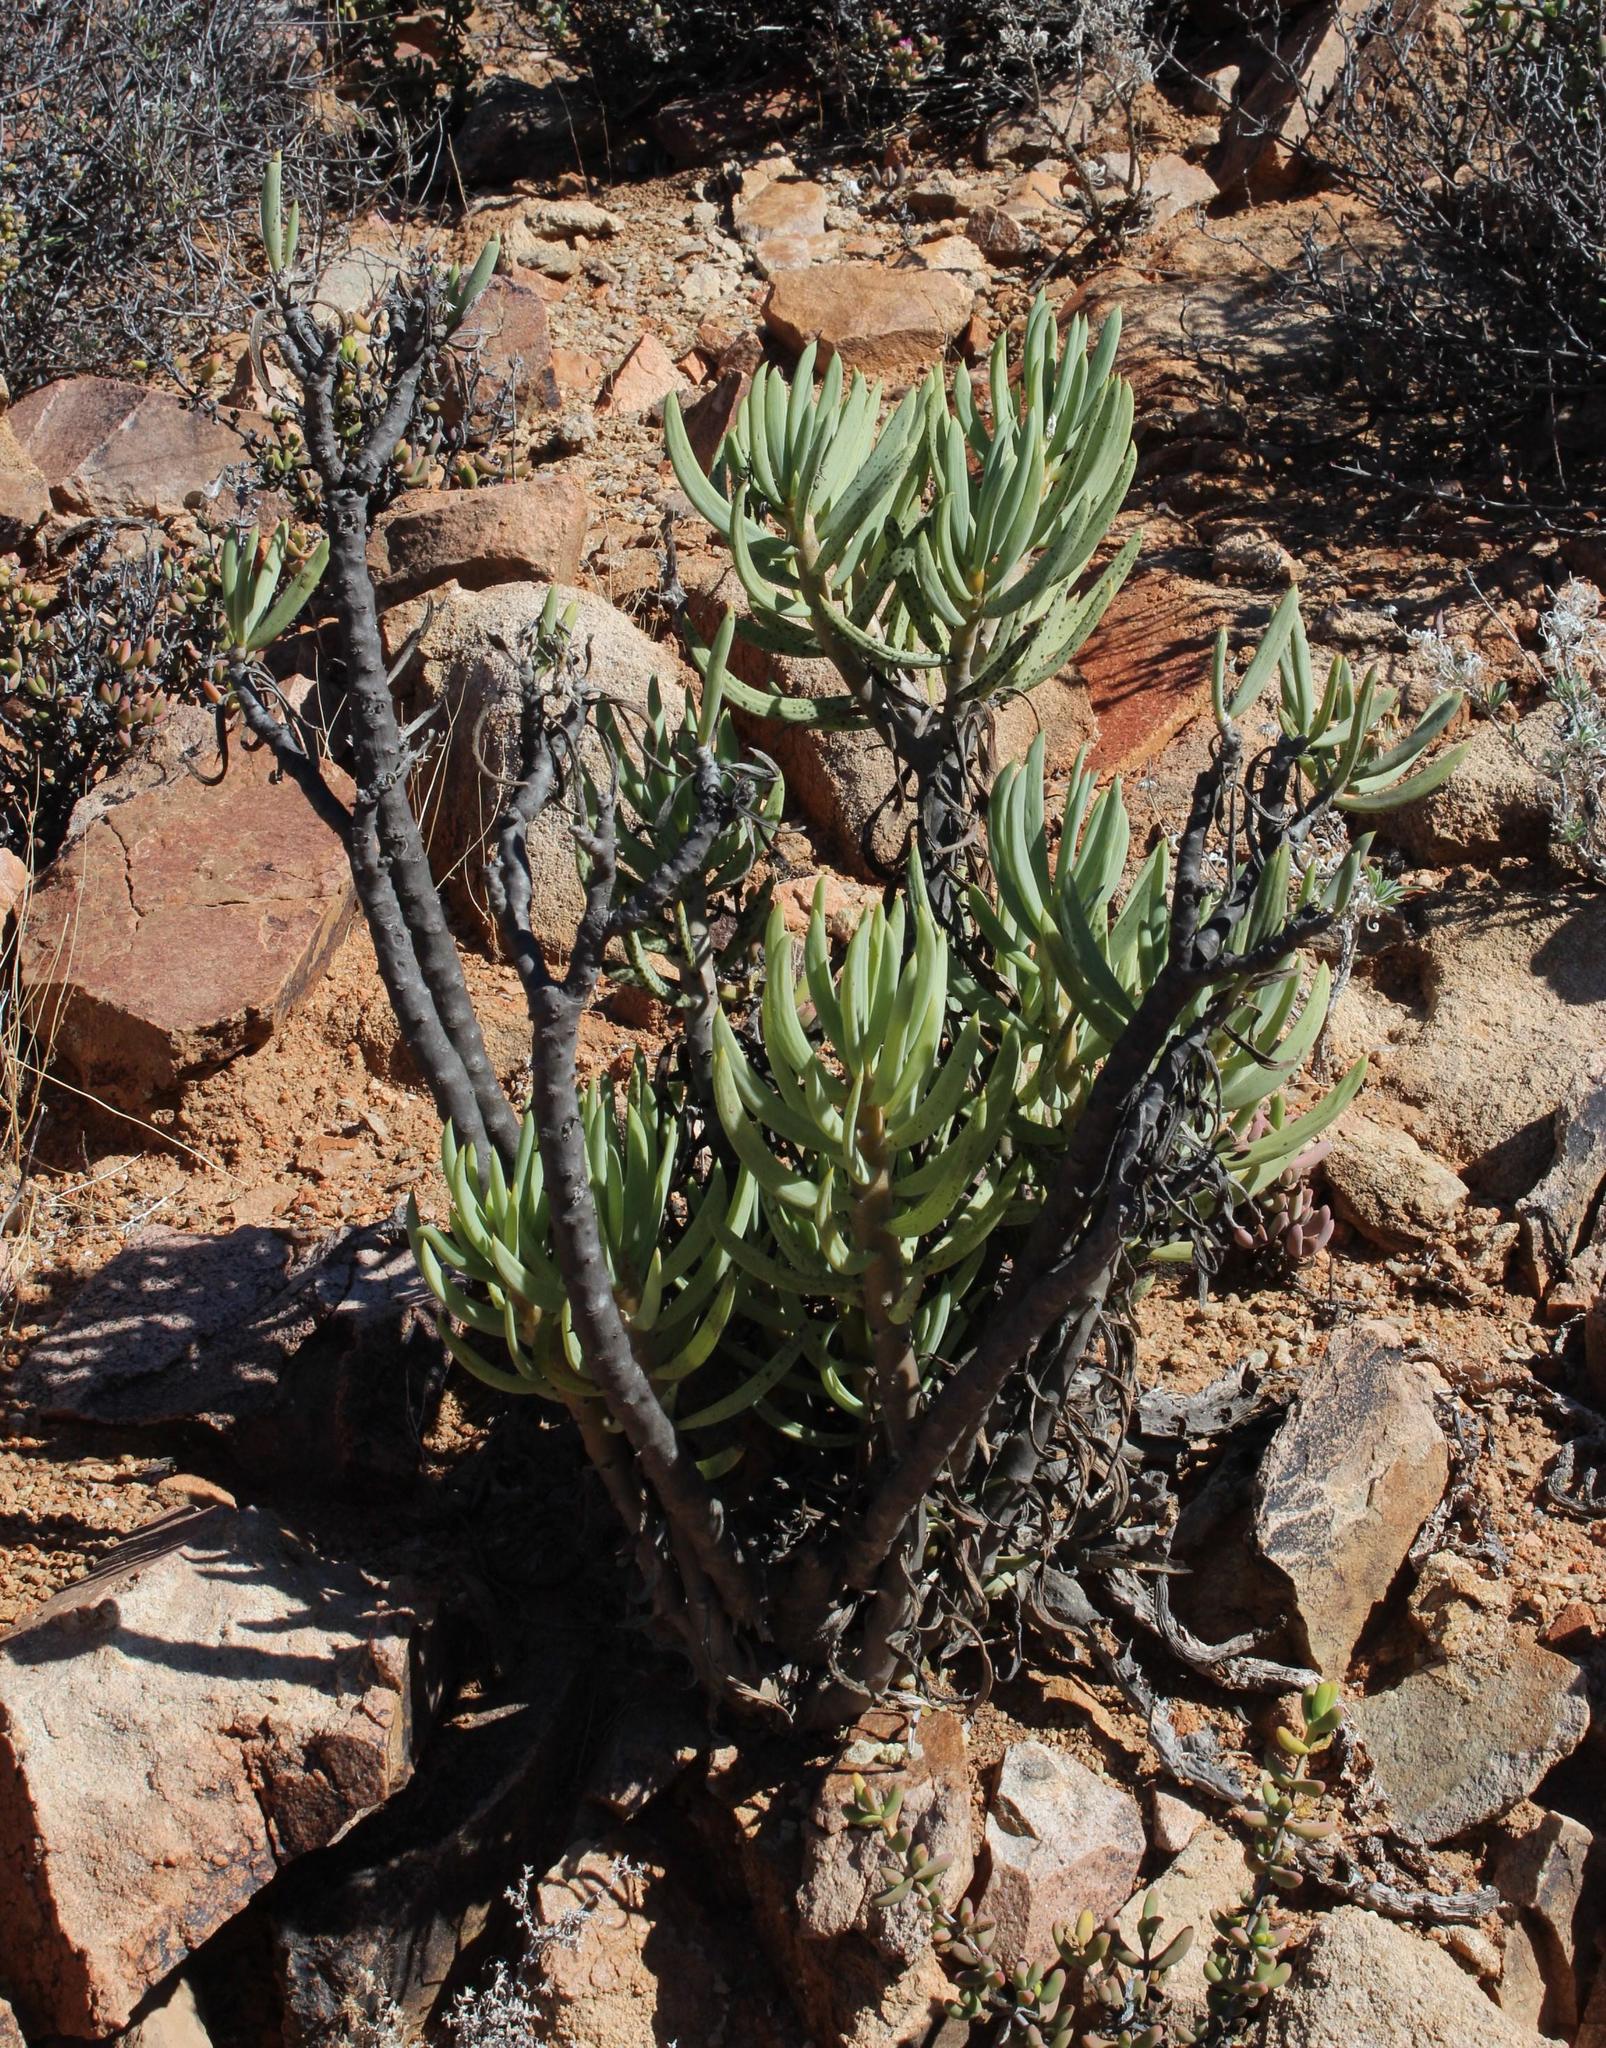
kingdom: Plantae
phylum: Tracheophyta
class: Magnoliopsida
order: Asterales
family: Asteraceae
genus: Curio
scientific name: Curio corymbifer
